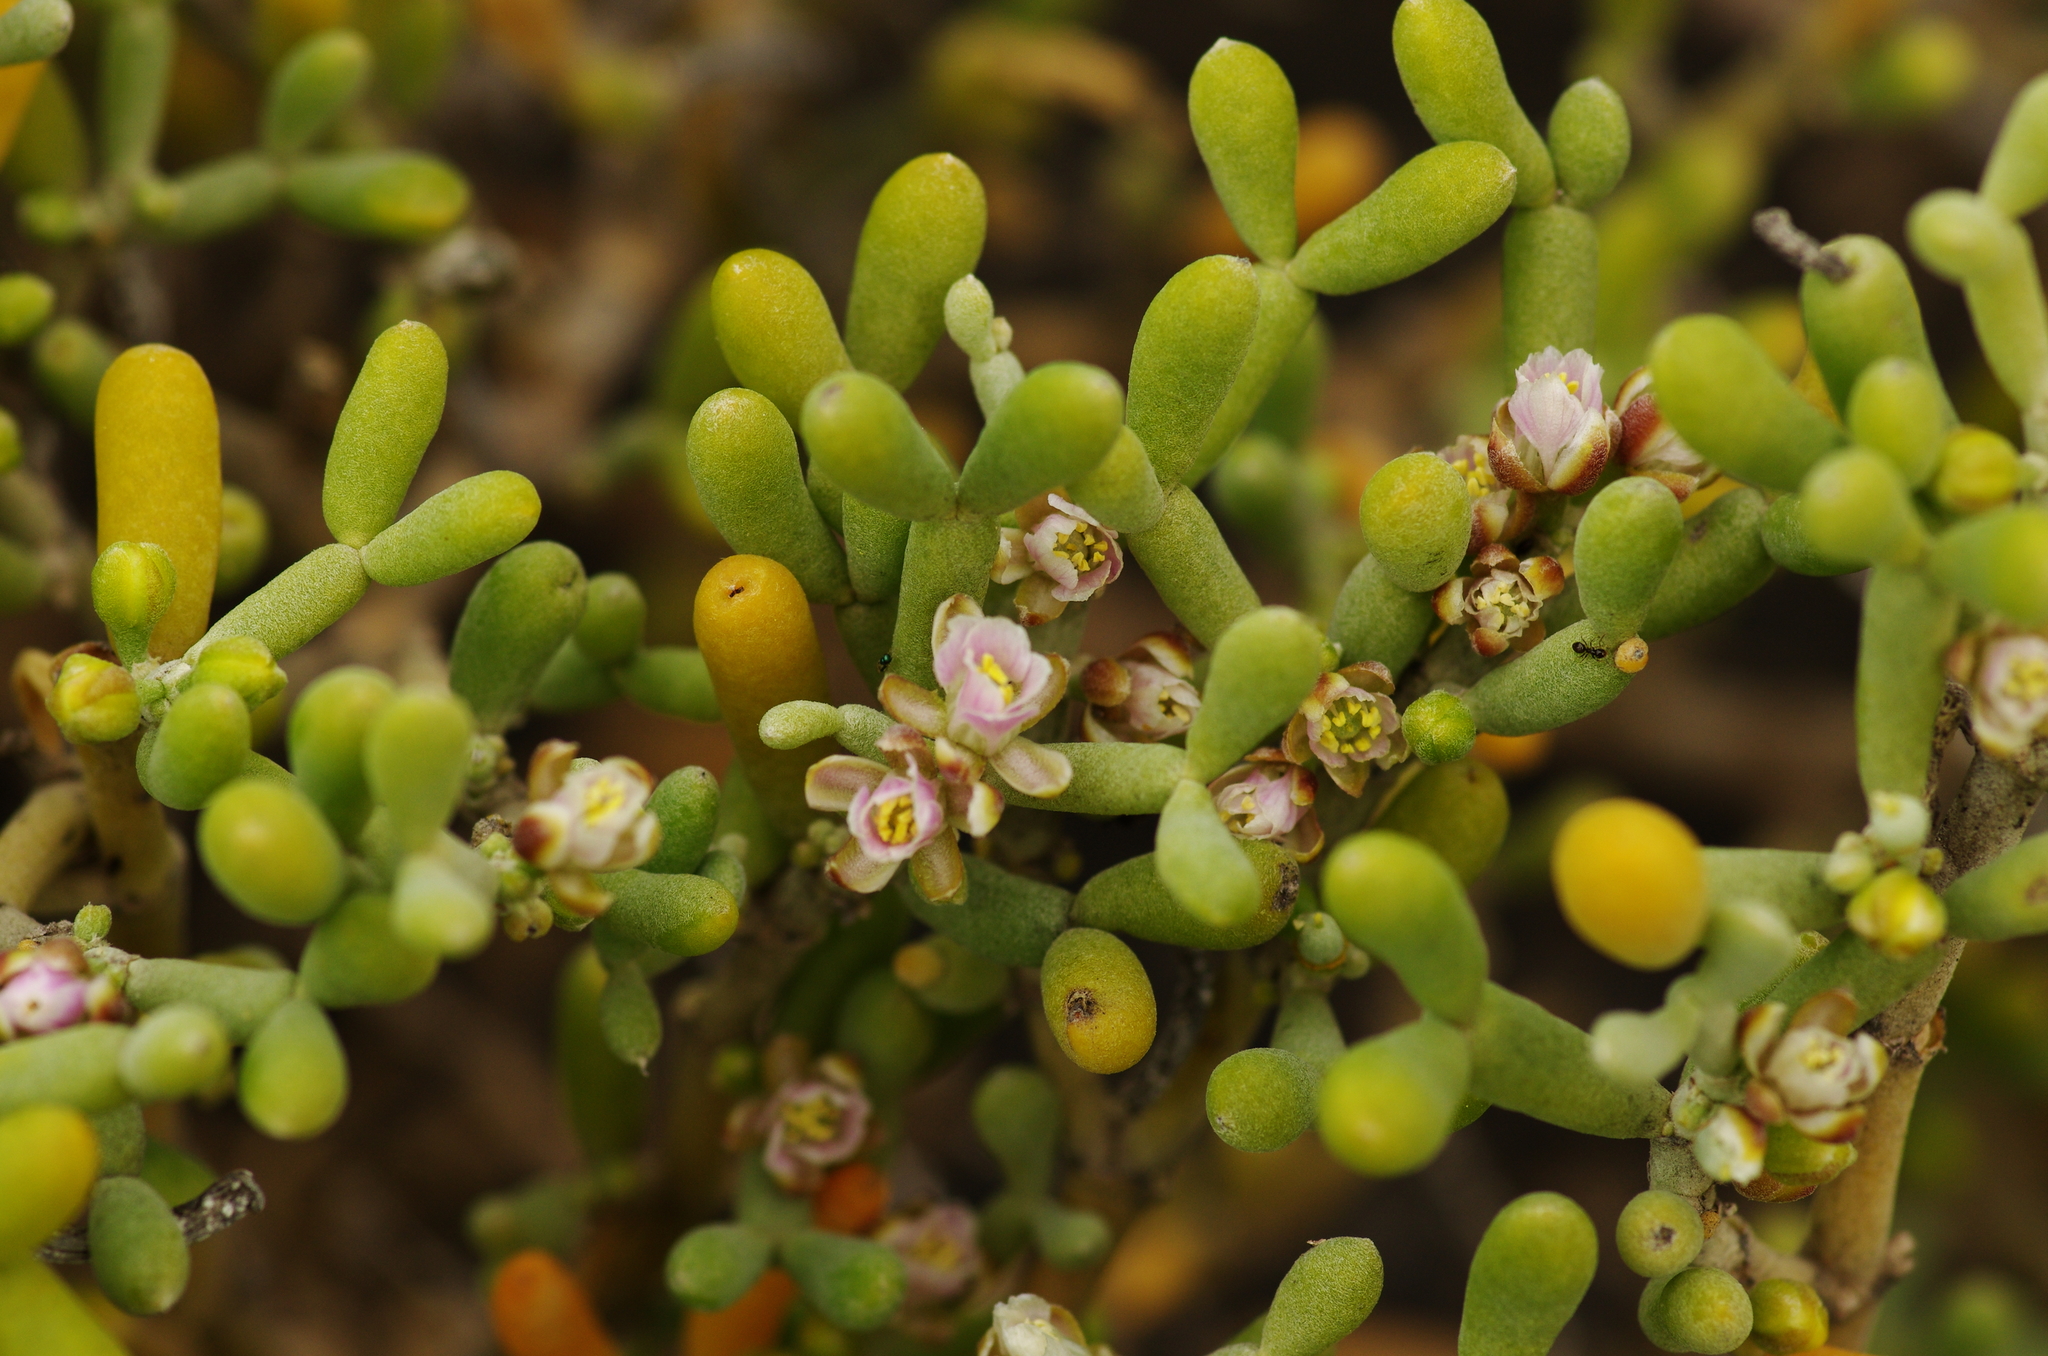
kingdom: Plantae
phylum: Tracheophyta
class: Magnoliopsida
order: Zygophyllales
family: Zygophyllaceae
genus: Tetraena
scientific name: Tetraena fontanesii
